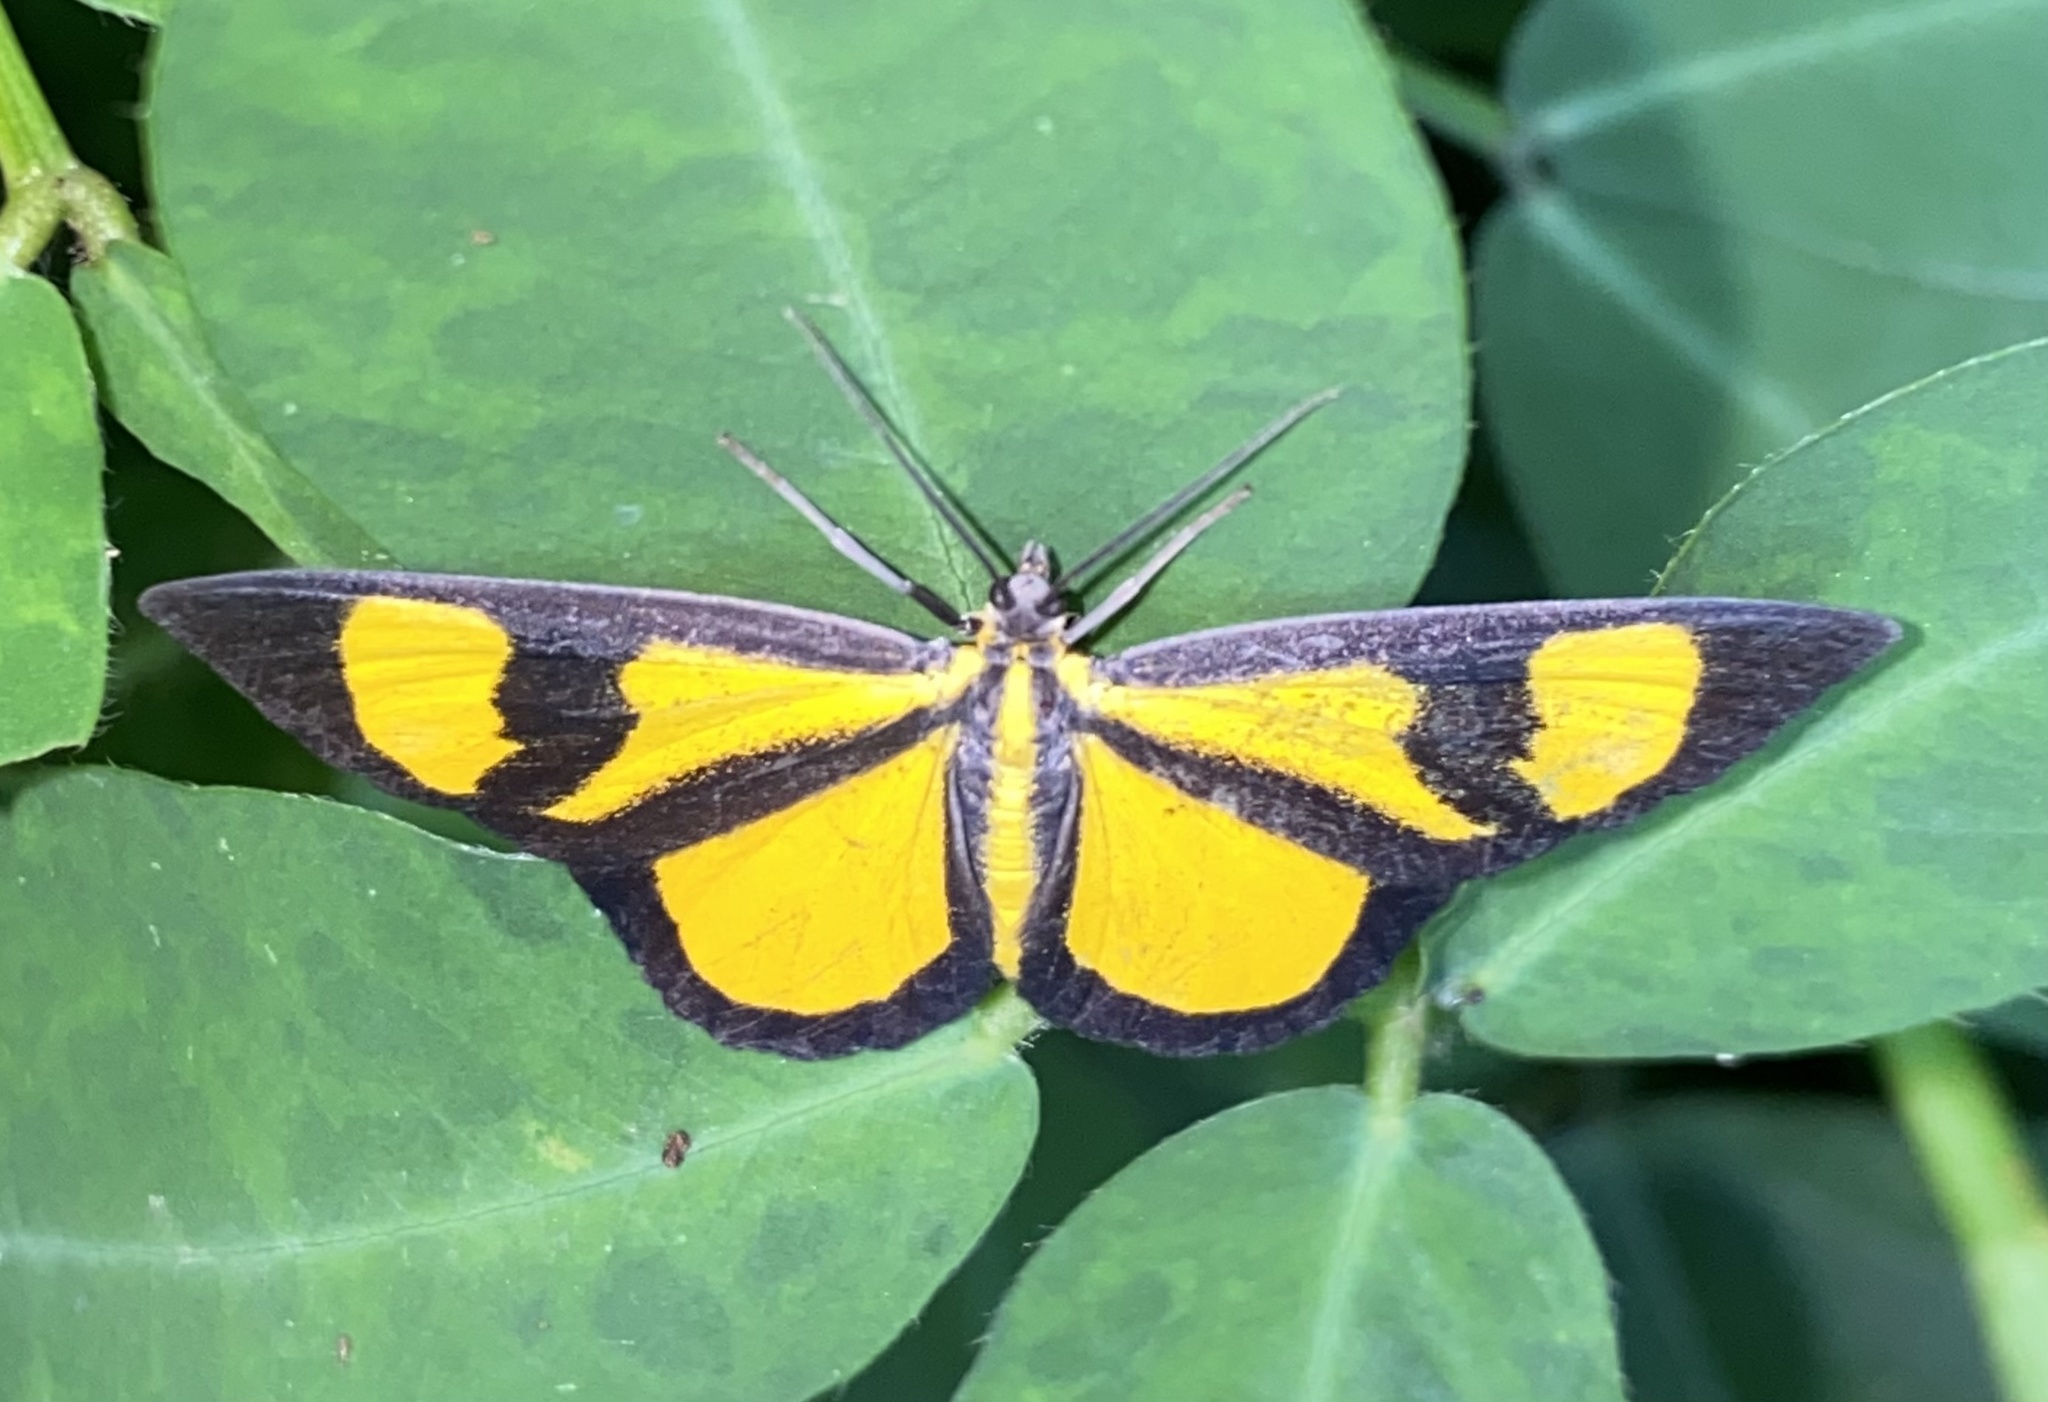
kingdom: Animalia
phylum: Arthropoda
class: Insecta
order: Lepidoptera
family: Geometridae
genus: Smicropus
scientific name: Smicropus laeta
